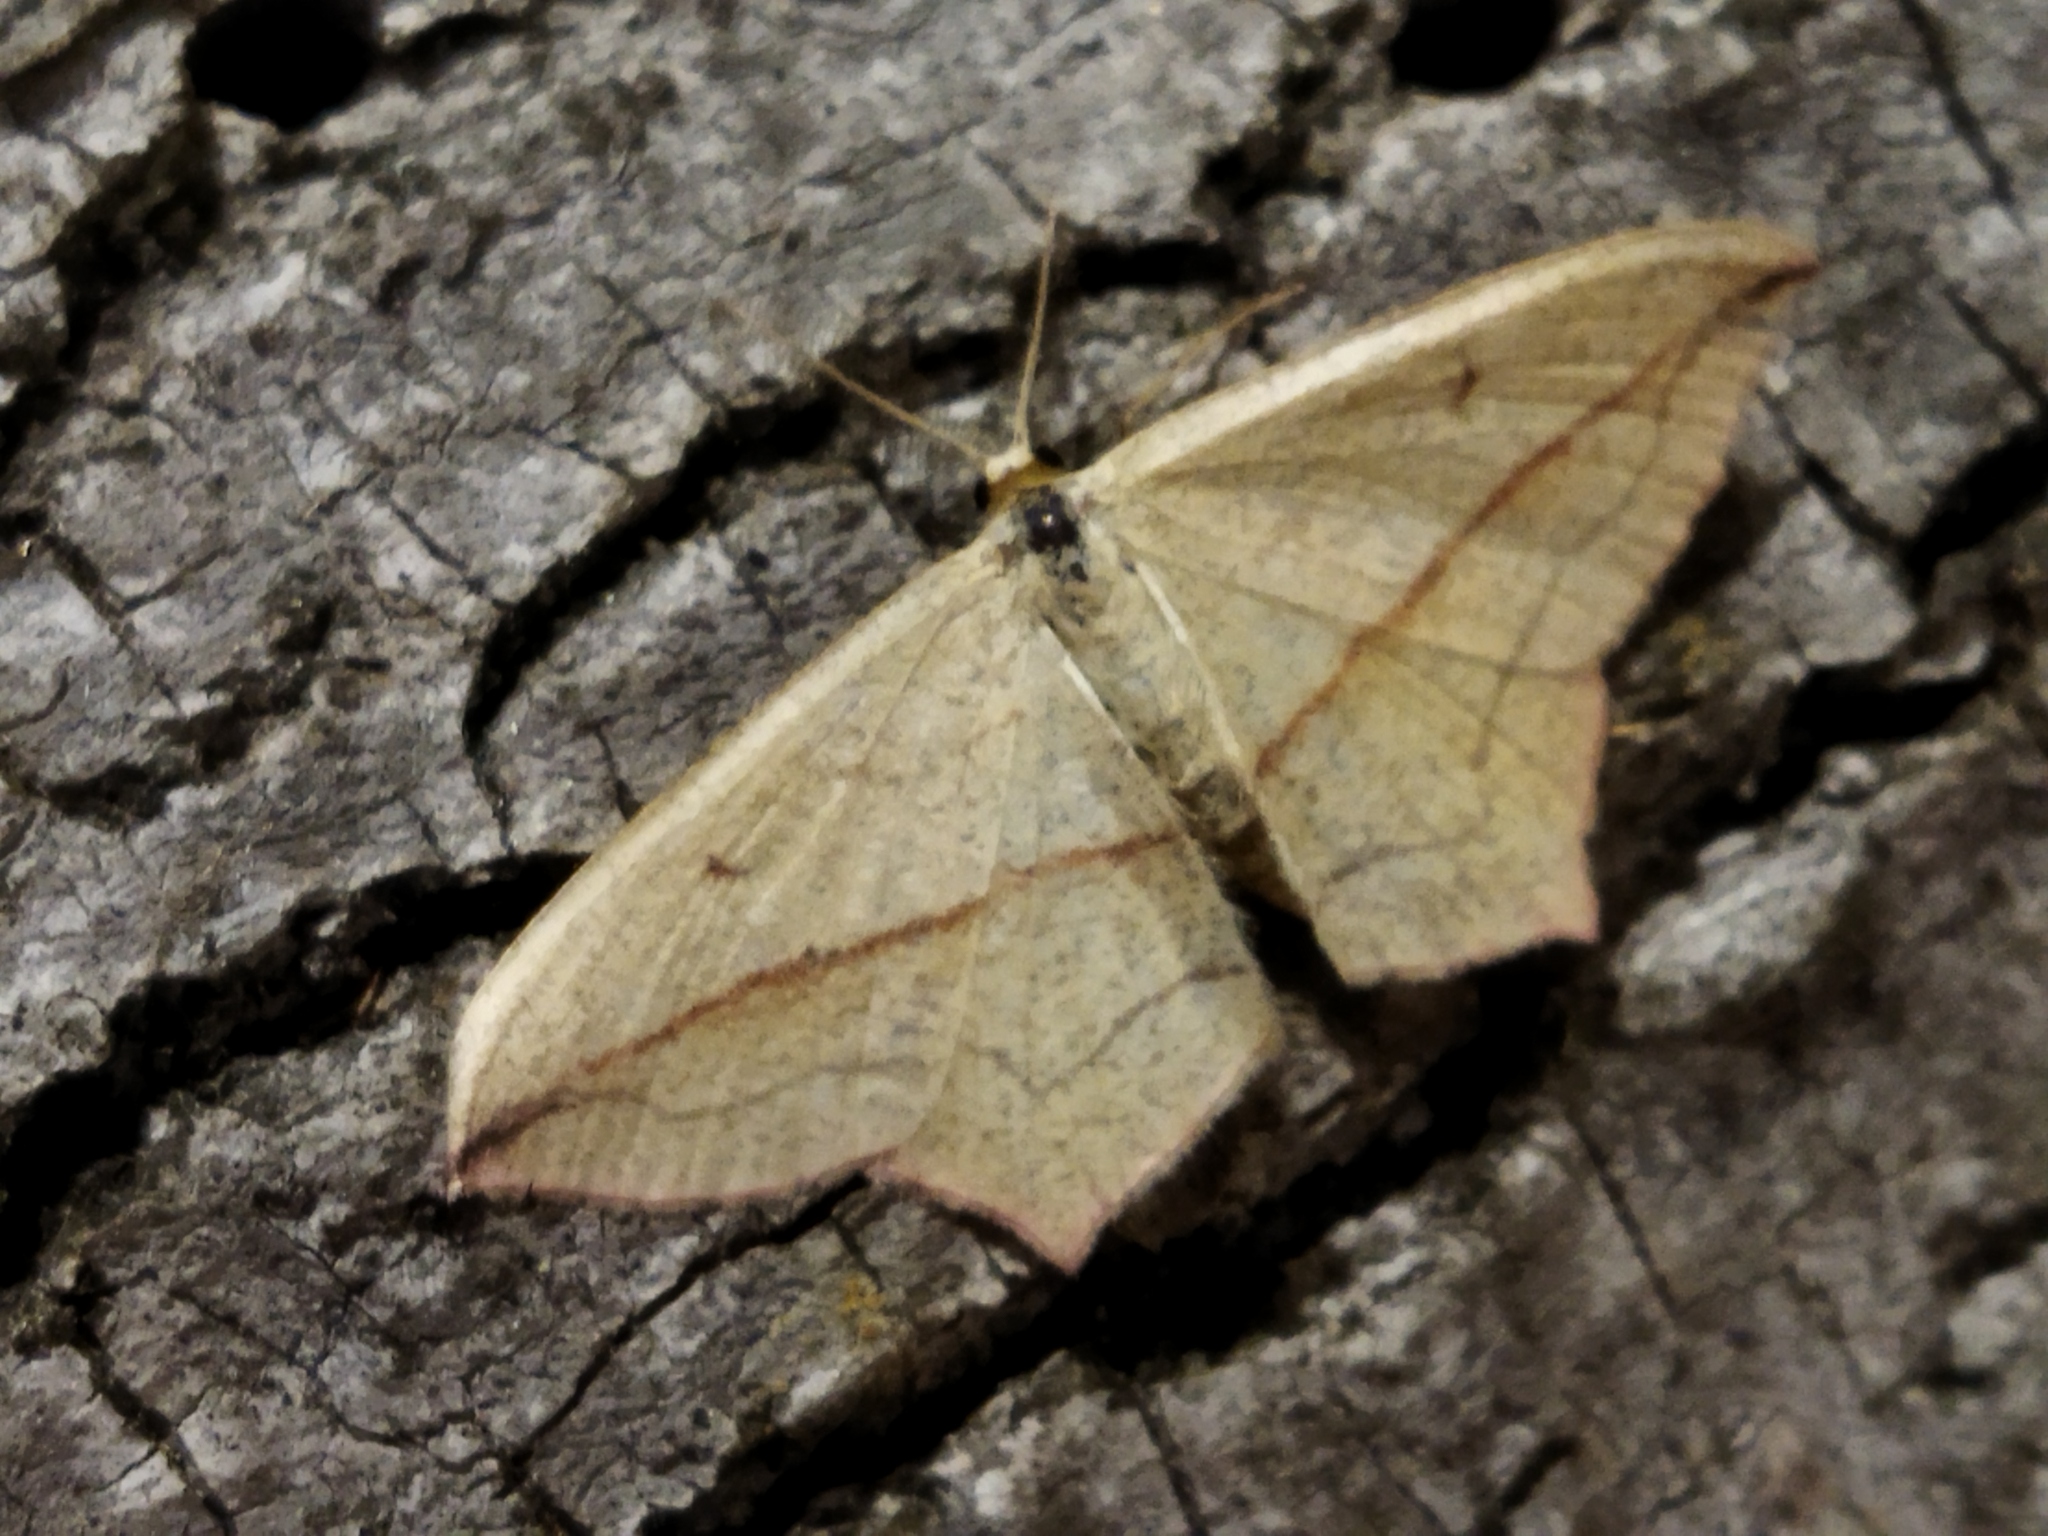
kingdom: Animalia
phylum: Arthropoda
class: Insecta
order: Lepidoptera
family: Geometridae
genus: Timandra
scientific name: Timandra comae
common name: Blood-vein
